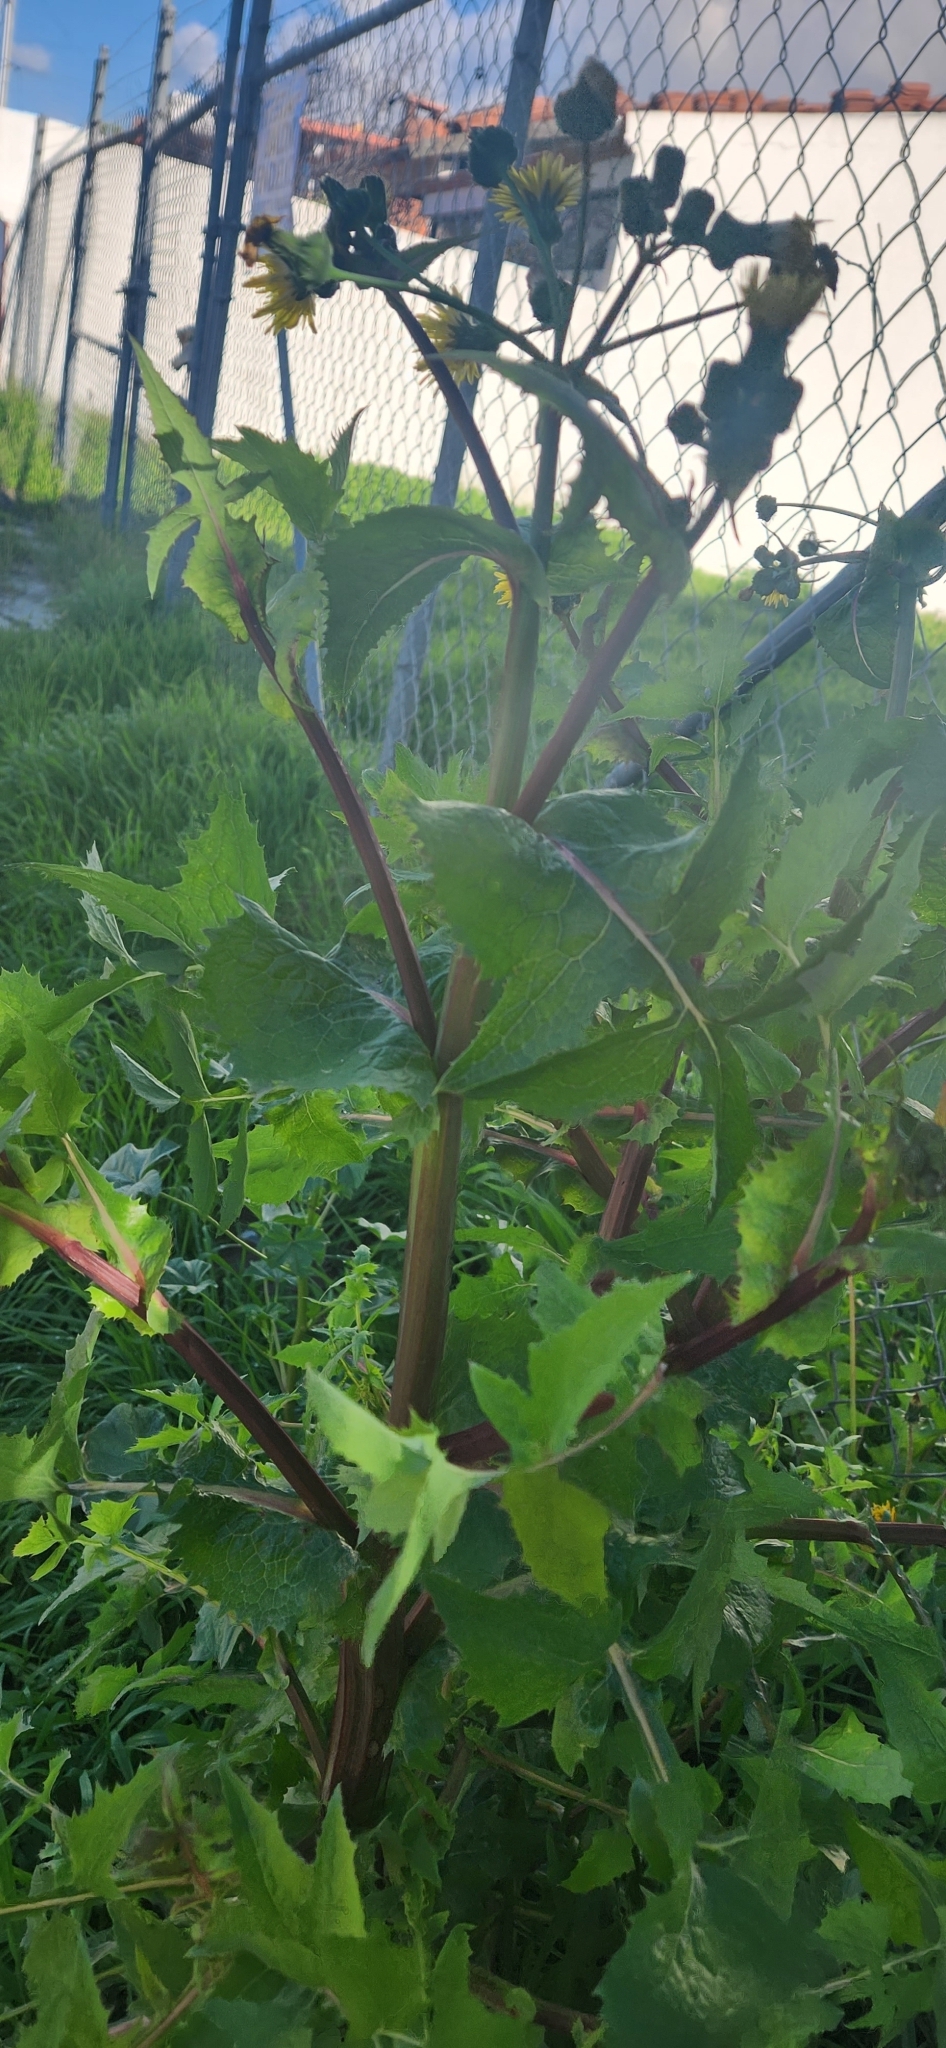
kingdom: Plantae
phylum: Tracheophyta
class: Magnoliopsida
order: Asterales
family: Asteraceae
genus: Sonchus
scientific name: Sonchus oleraceus
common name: Common sowthistle
